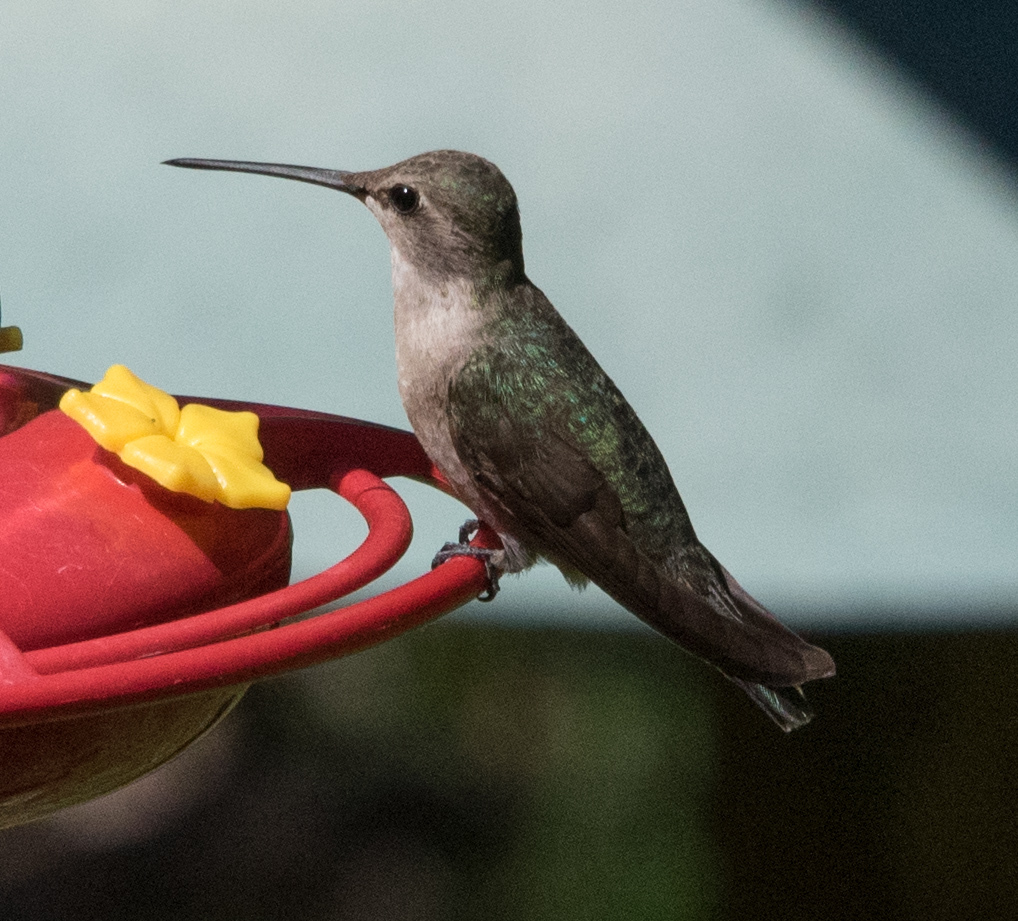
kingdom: Animalia
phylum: Chordata
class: Aves
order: Apodiformes
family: Trochilidae
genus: Archilochus
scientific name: Archilochus alexandri
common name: Black-chinned hummingbird
